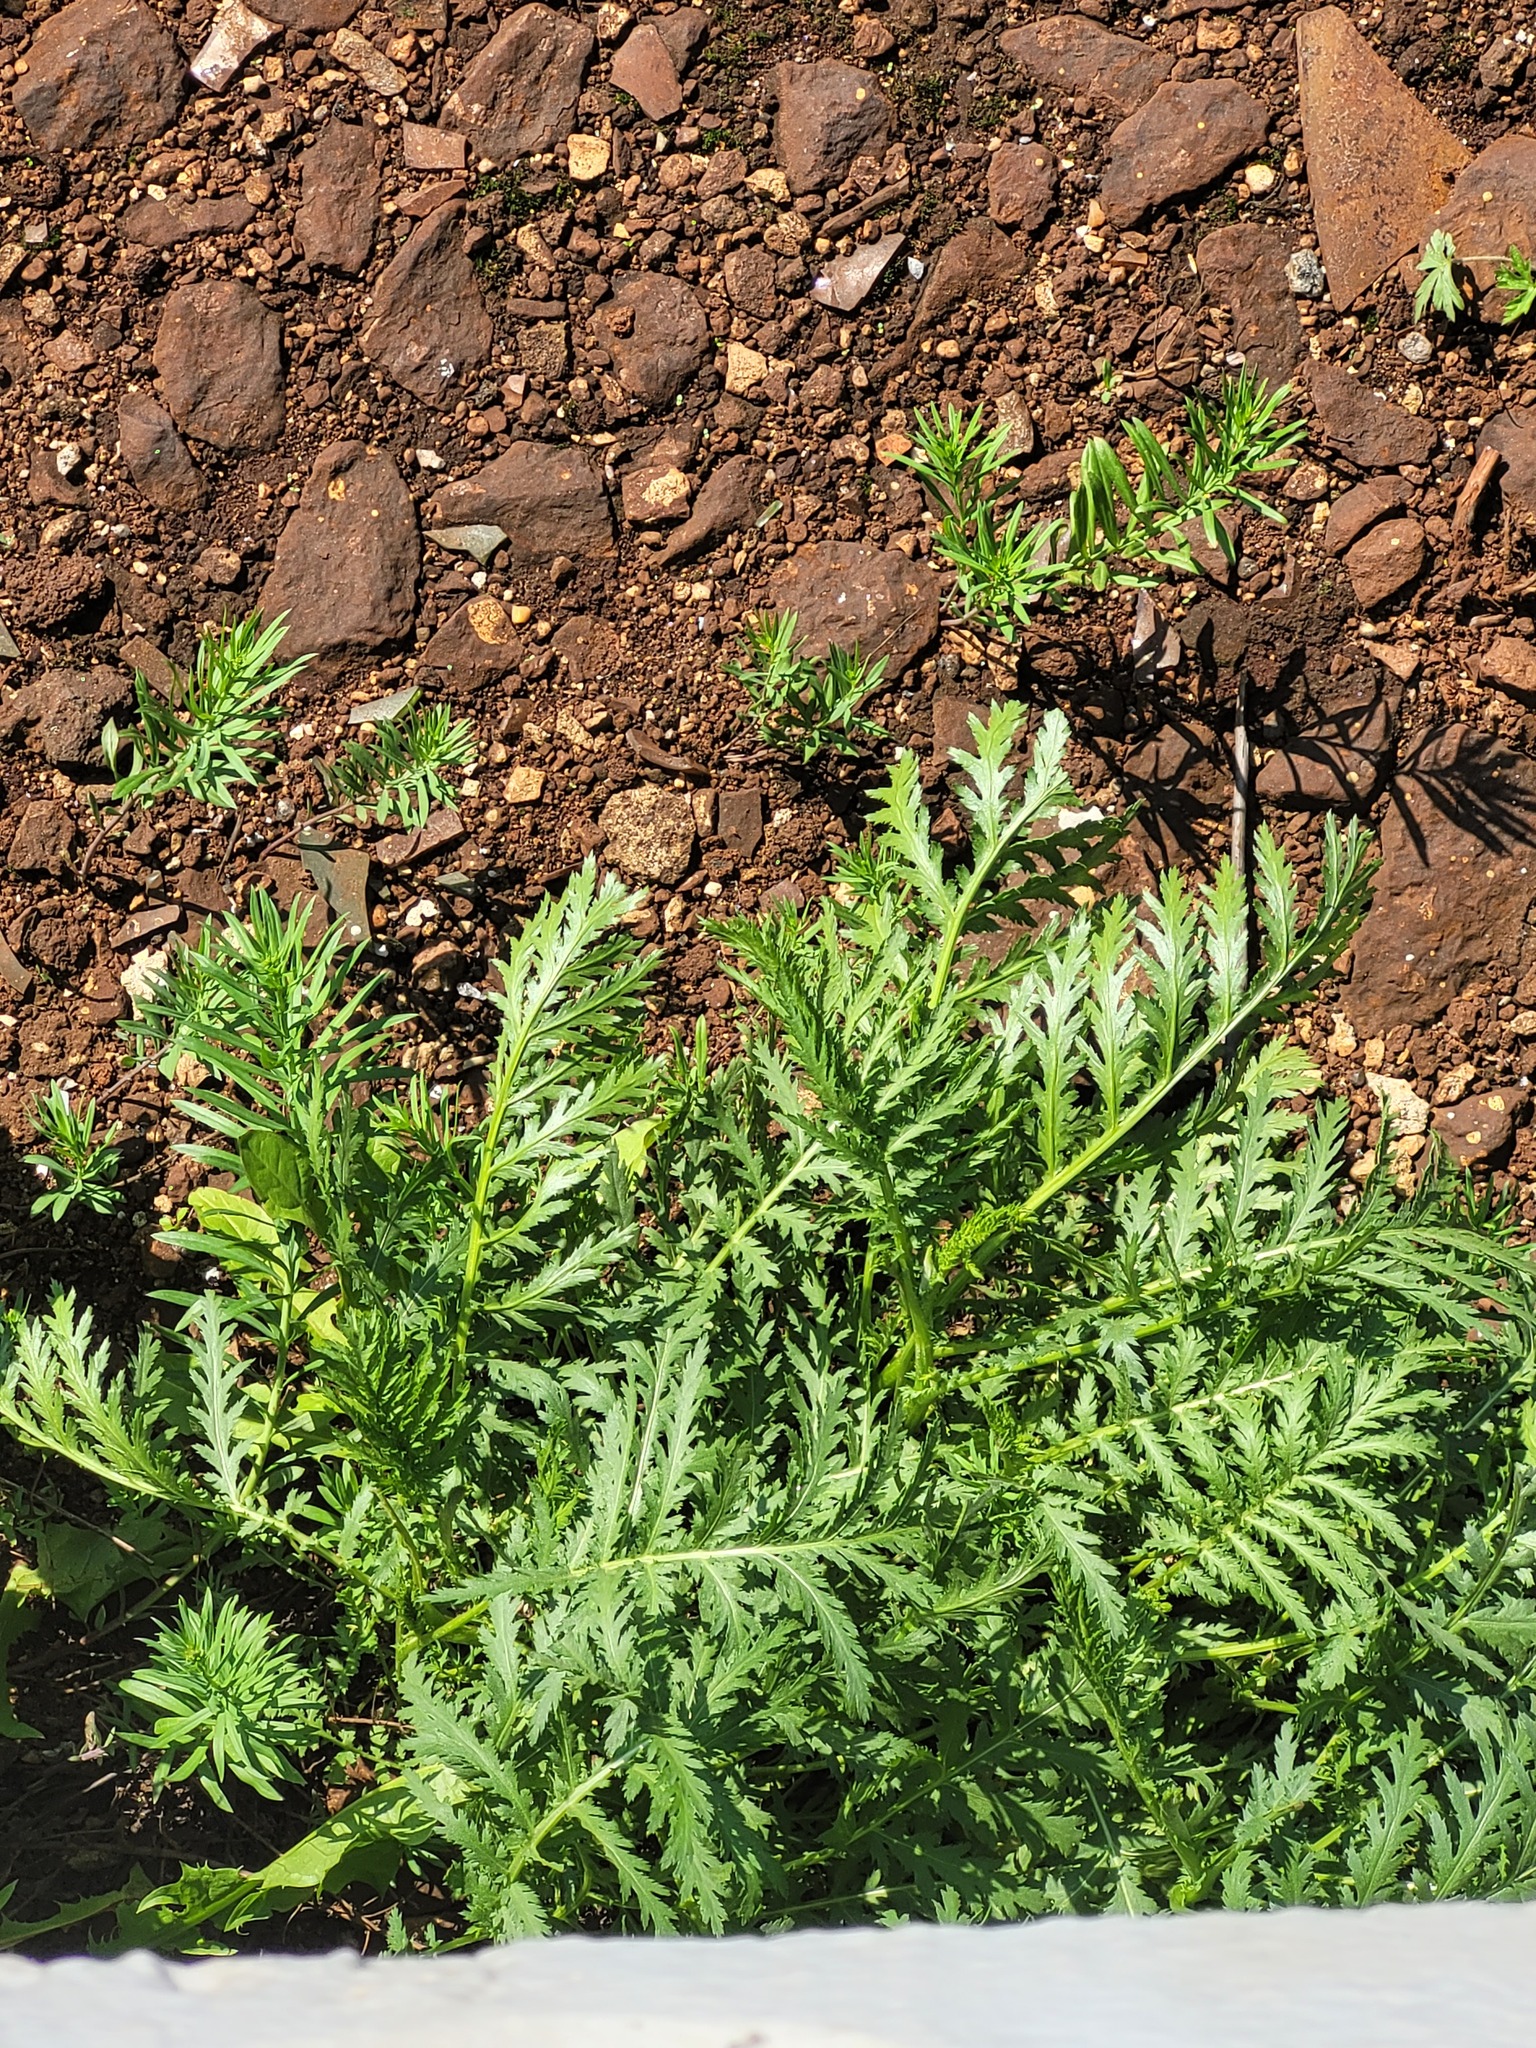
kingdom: Plantae
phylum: Tracheophyta
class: Magnoliopsida
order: Asterales
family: Asteraceae
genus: Tanacetum
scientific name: Tanacetum vulgare
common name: Common tansy
